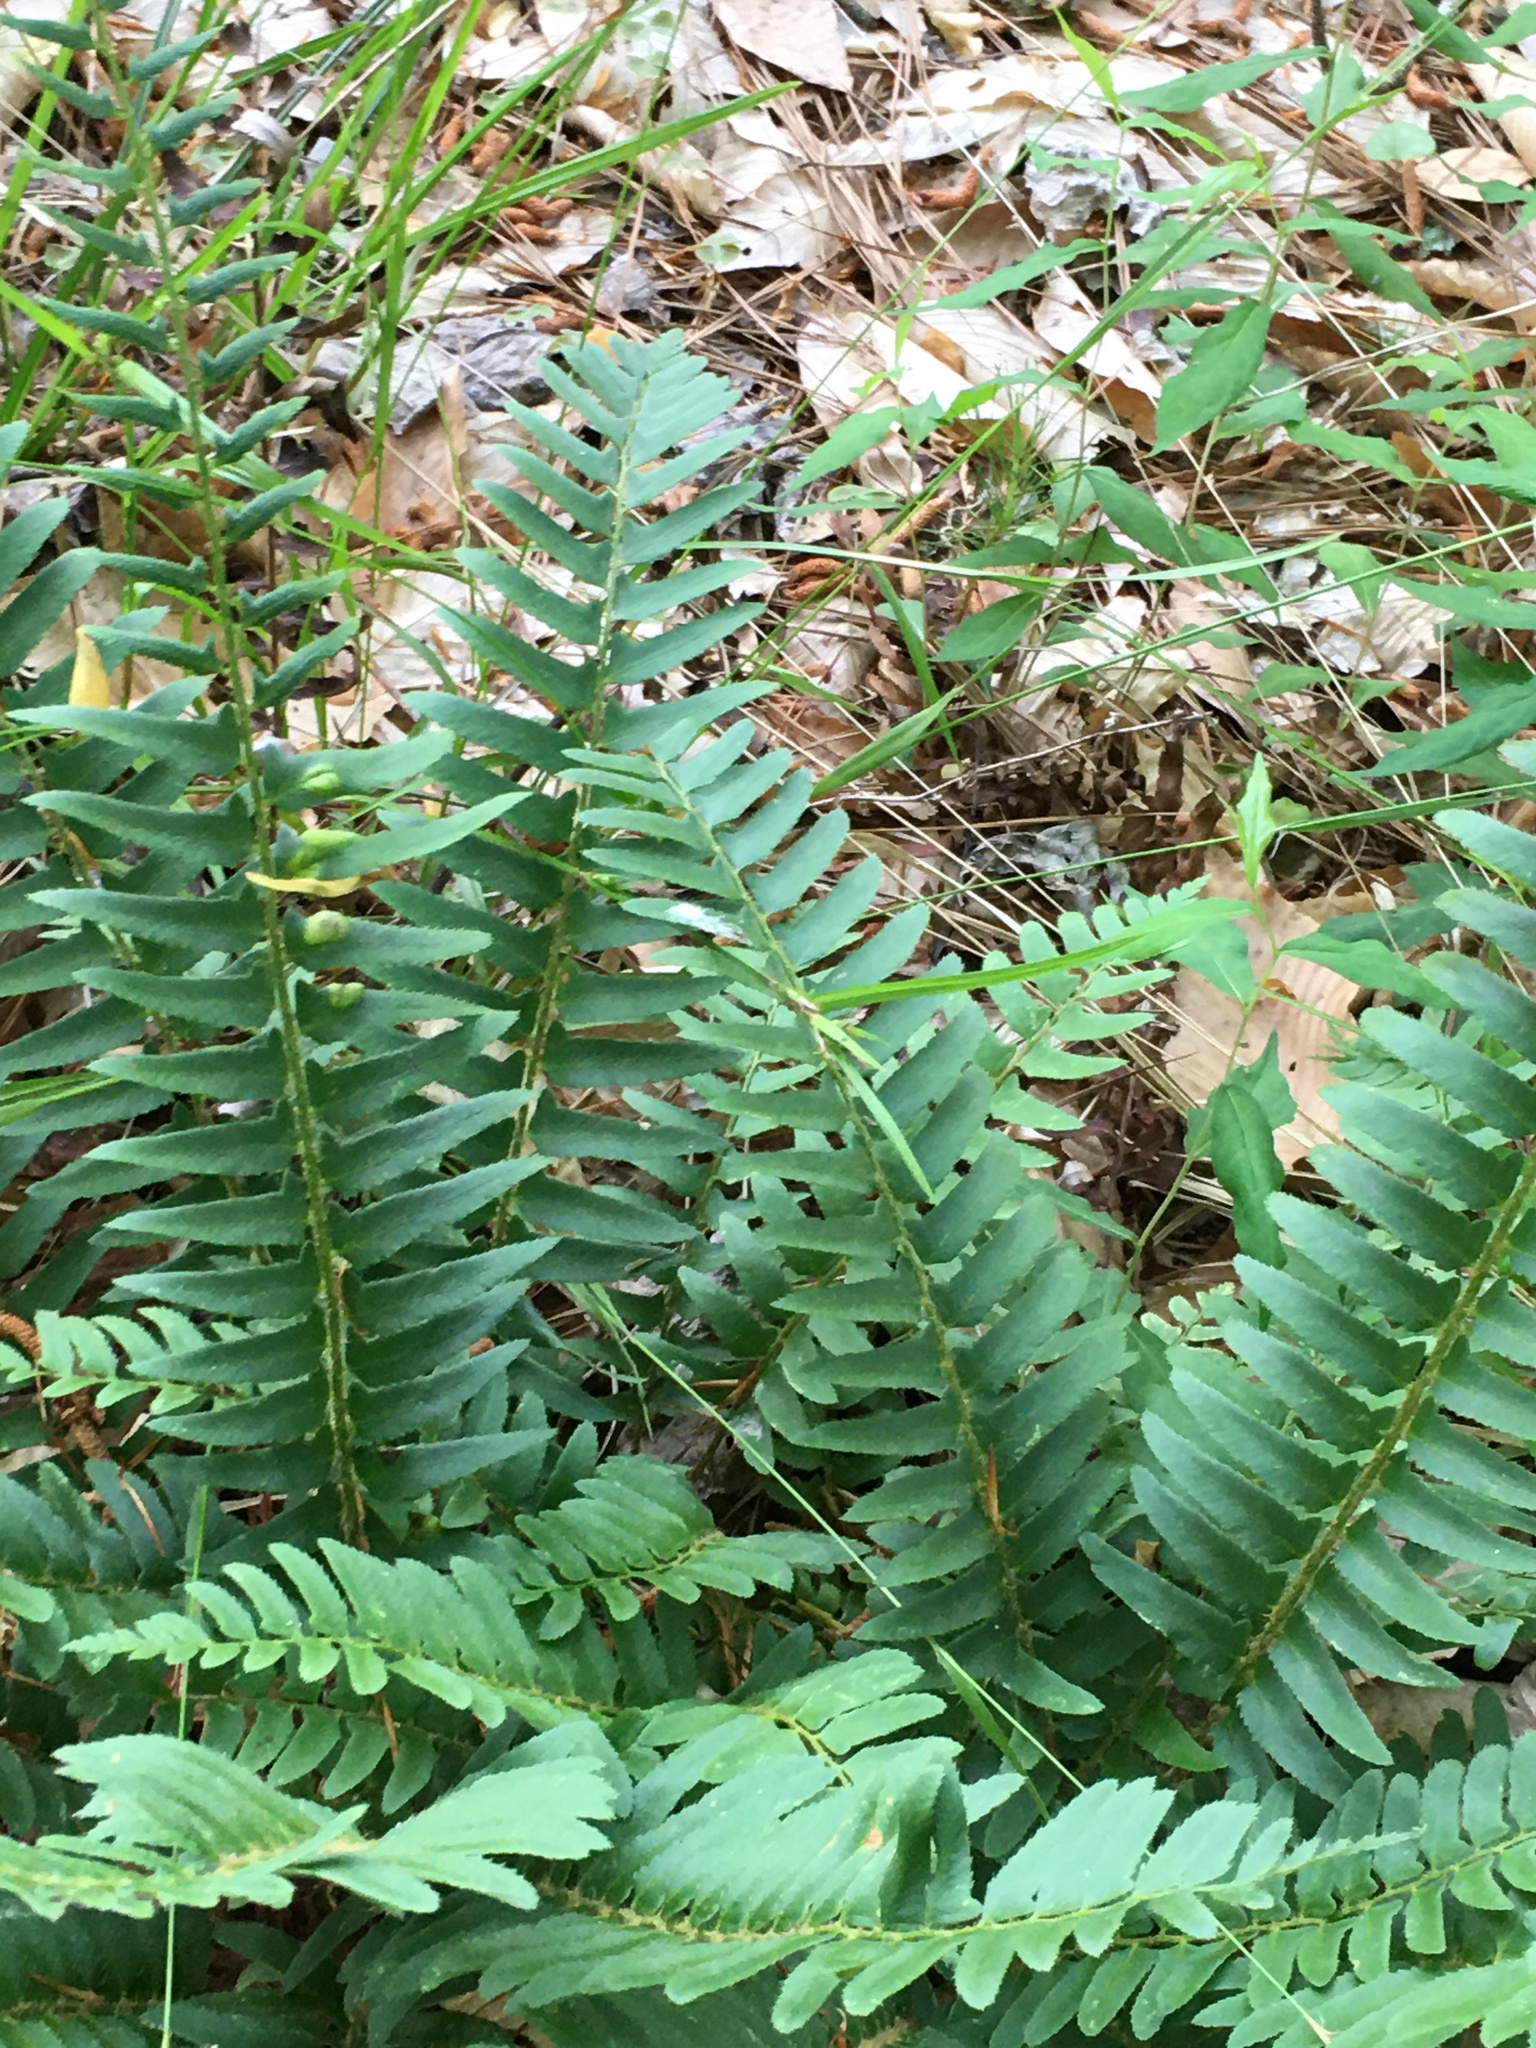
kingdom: Plantae
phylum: Tracheophyta
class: Polypodiopsida
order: Polypodiales
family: Dryopteridaceae
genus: Polystichum
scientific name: Polystichum acrostichoides
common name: Christmas fern
